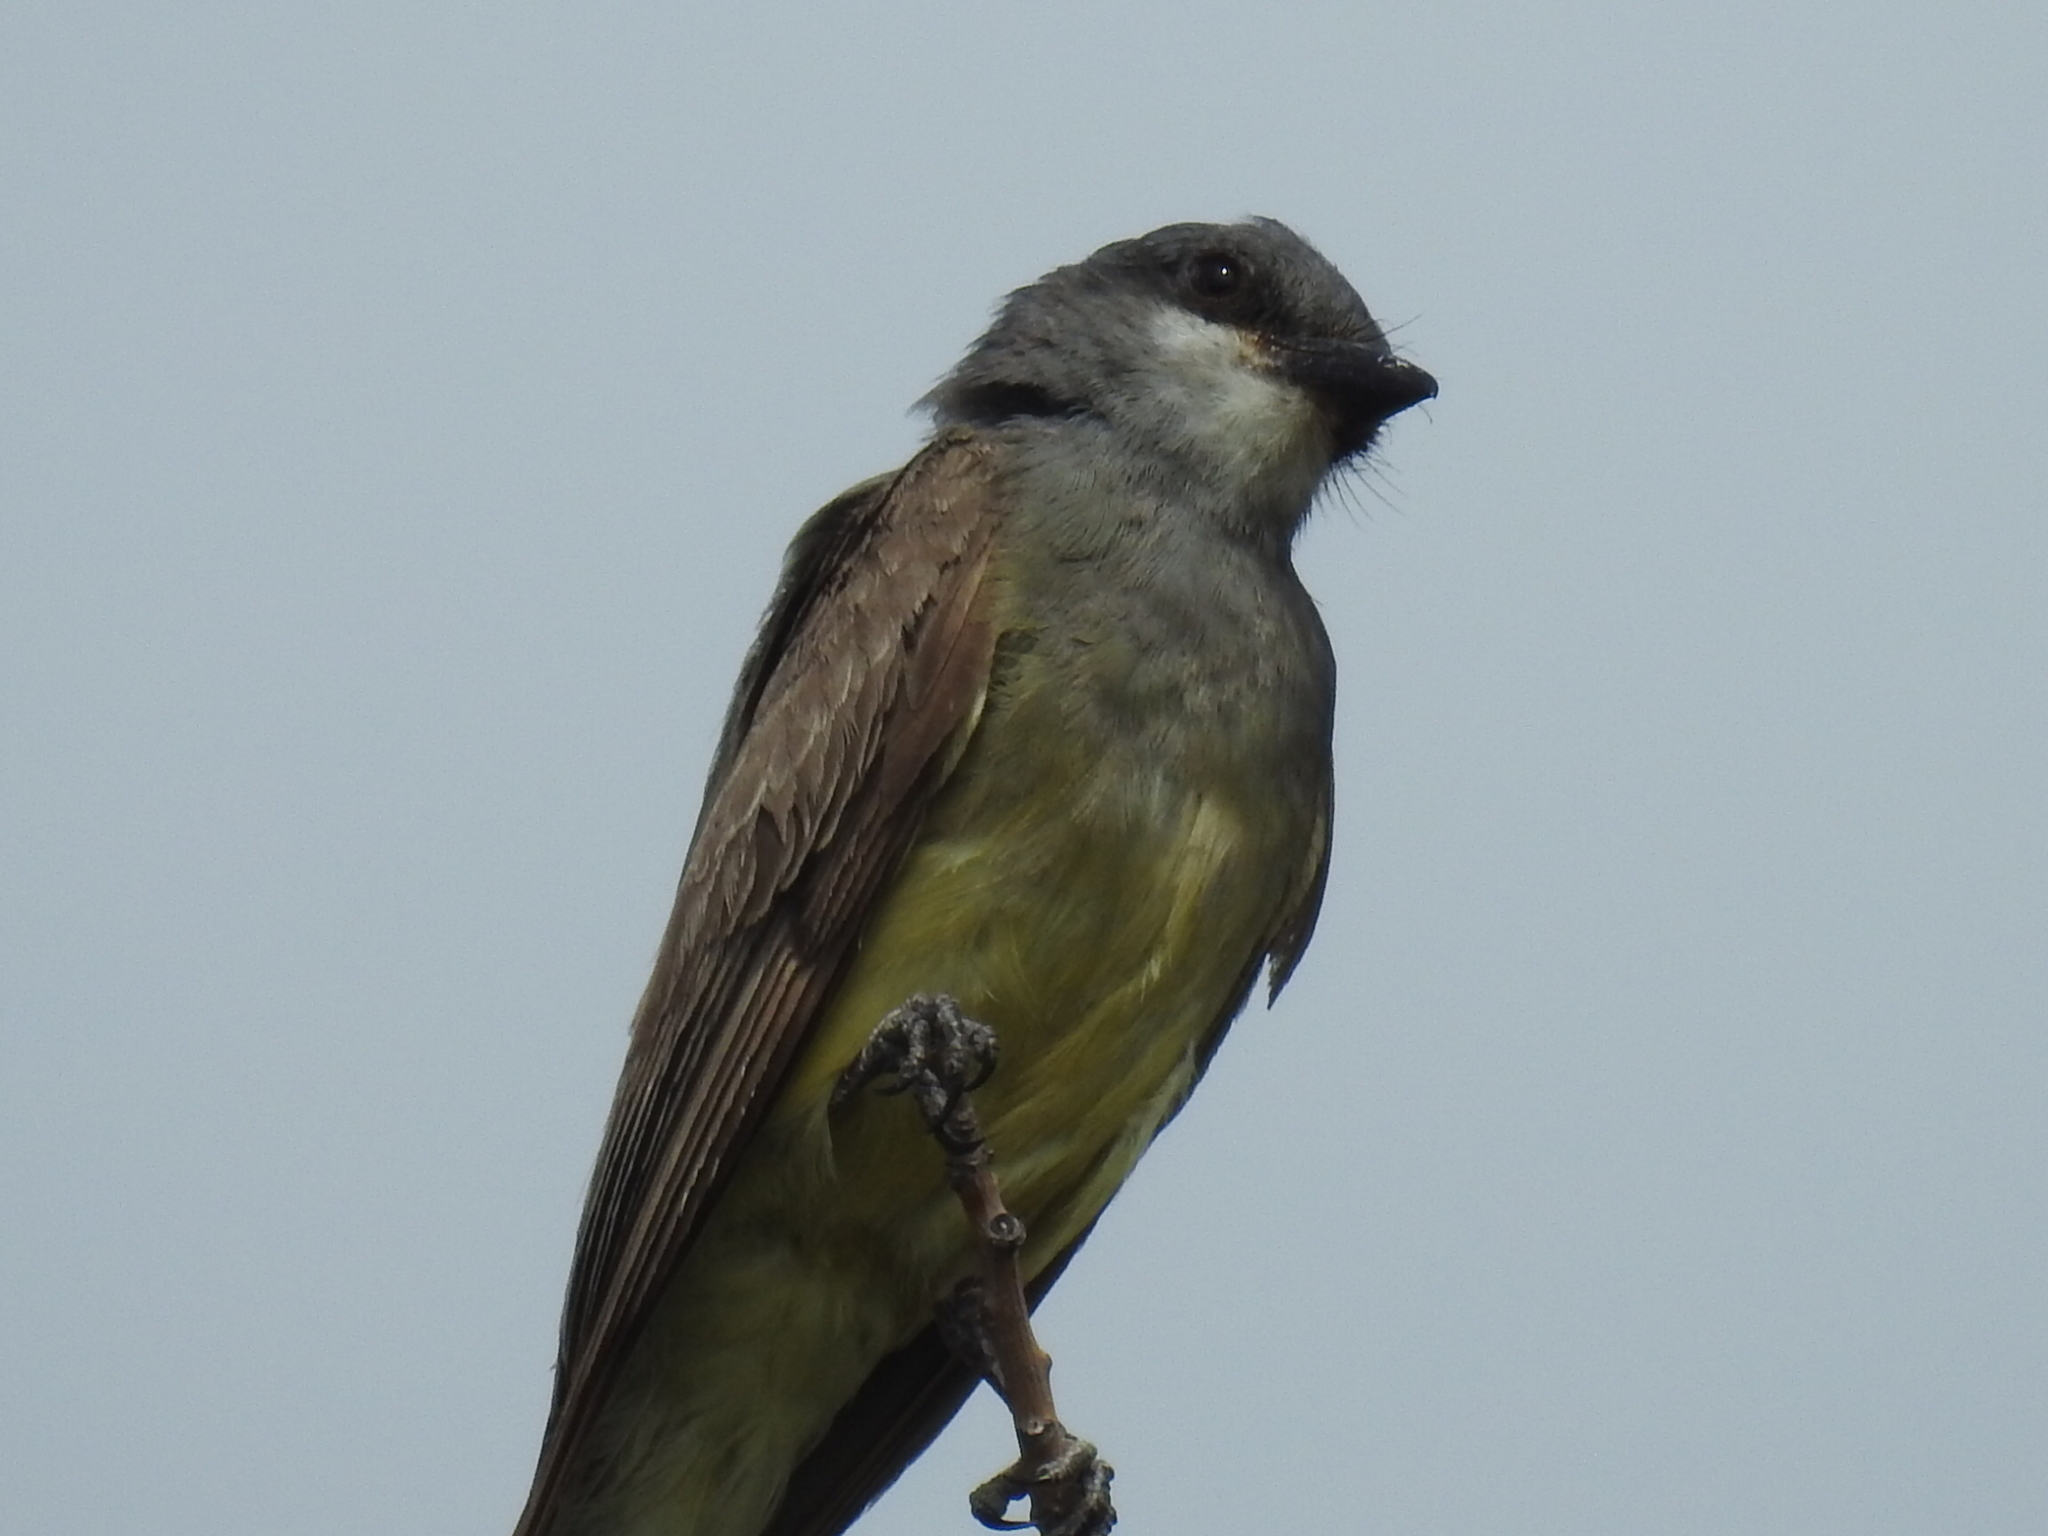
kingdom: Animalia
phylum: Chordata
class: Aves
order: Passeriformes
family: Tyrannidae
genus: Tyrannus
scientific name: Tyrannus vociferans
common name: Cassin's kingbird
